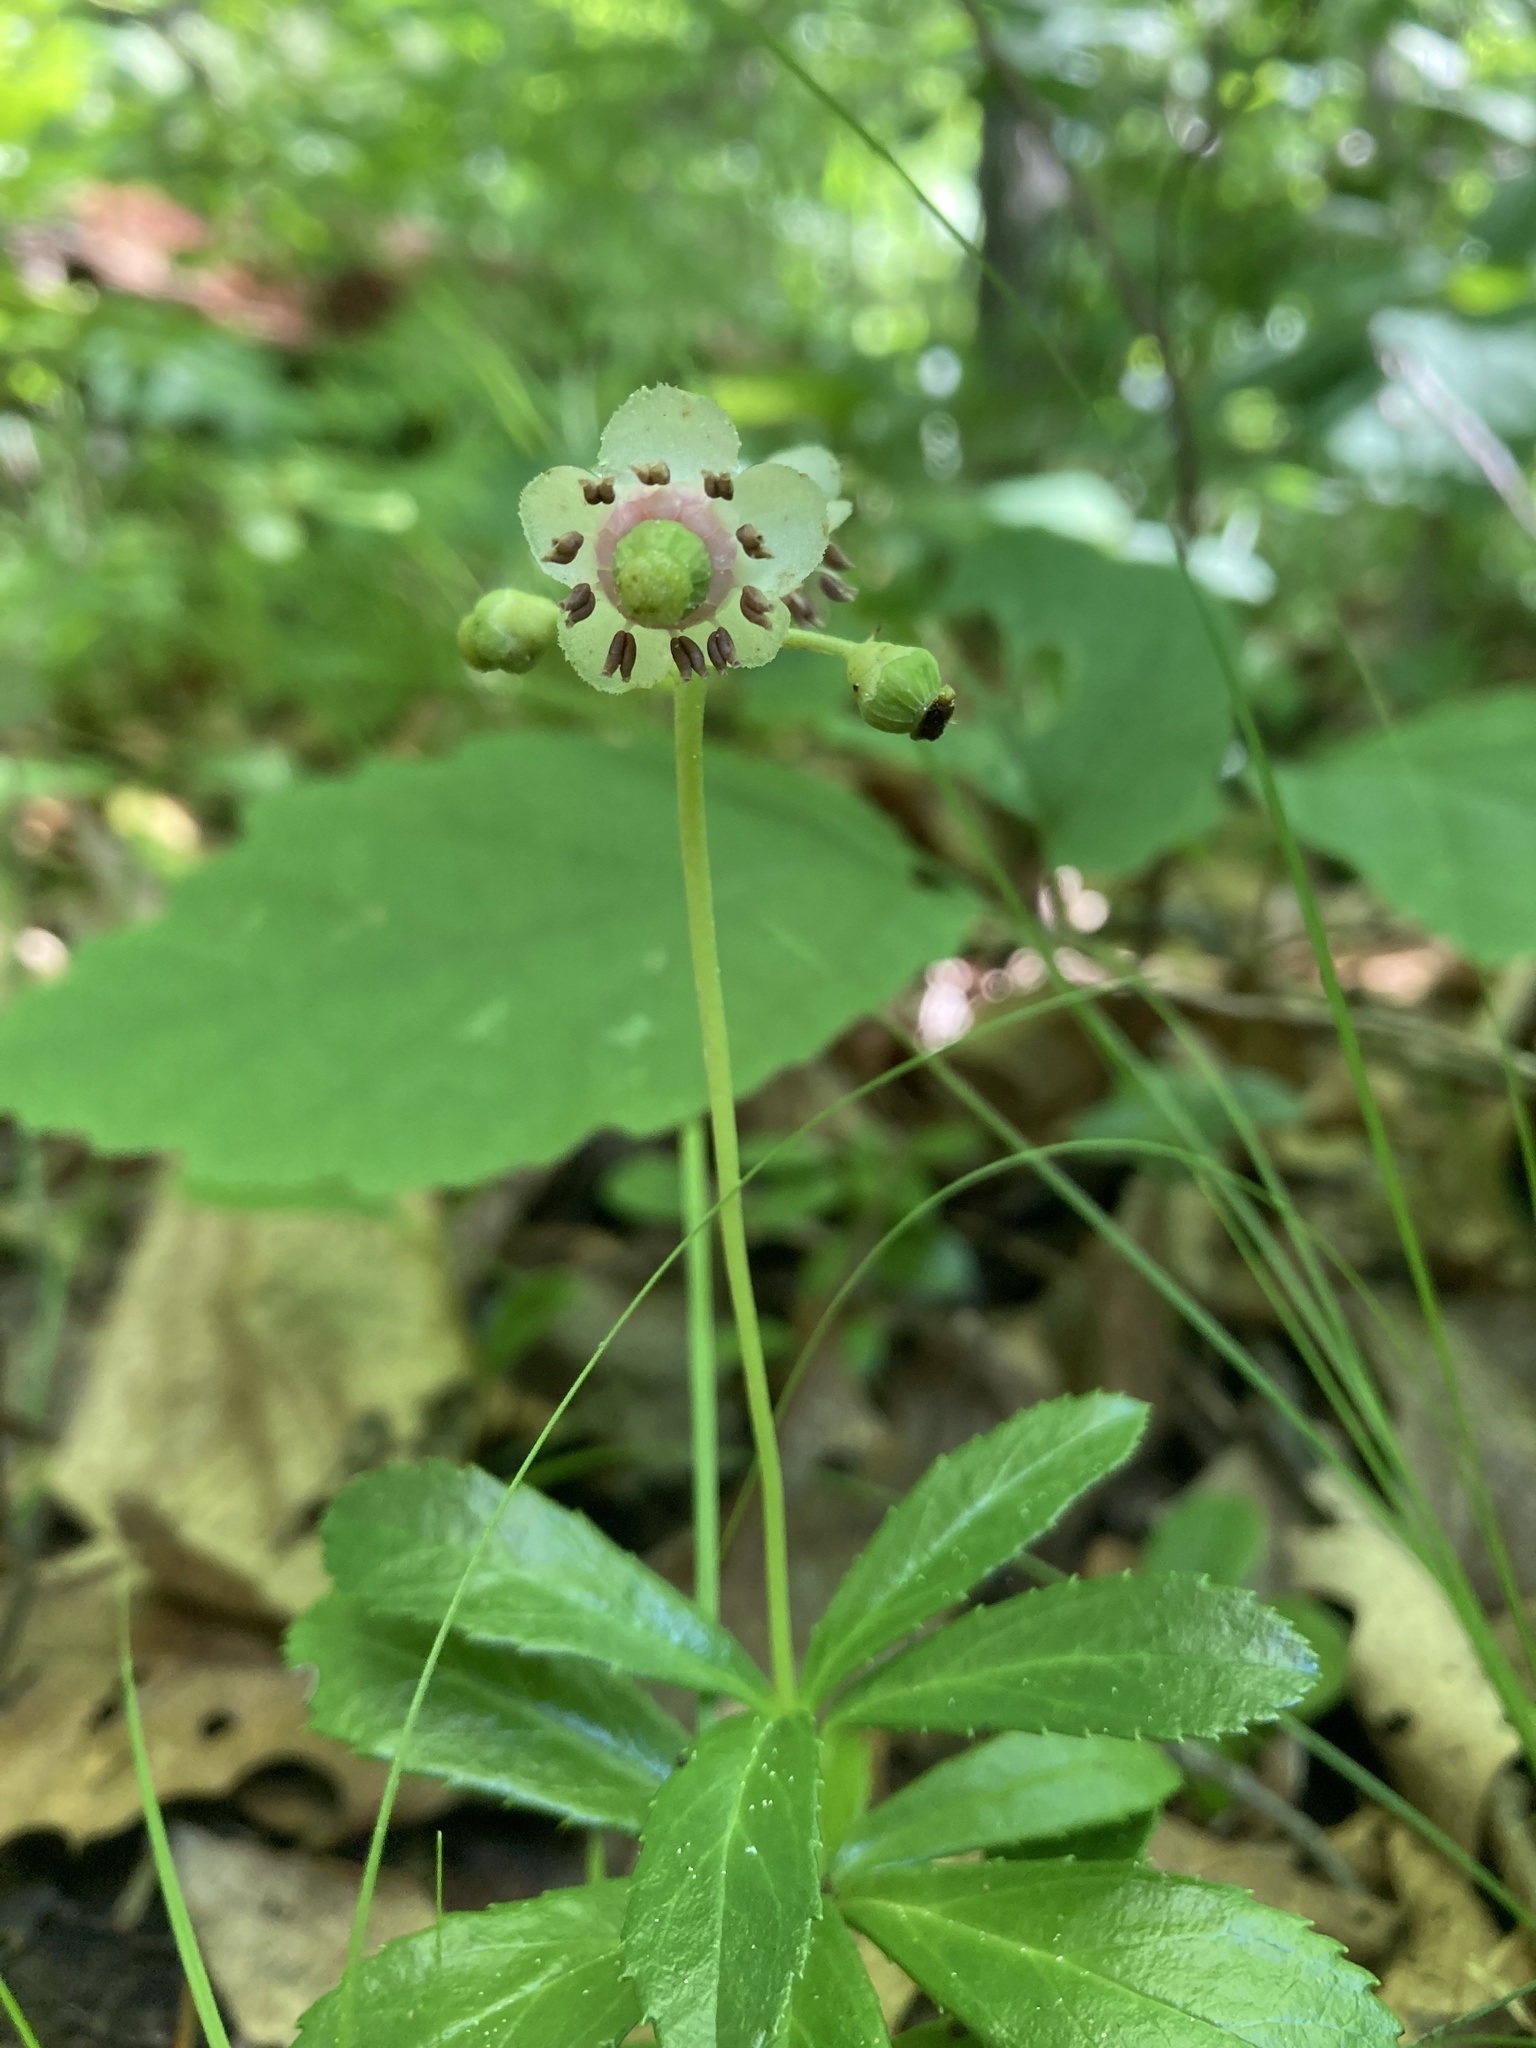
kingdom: Plantae
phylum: Tracheophyta
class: Magnoliopsida
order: Ericales
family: Ericaceae
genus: Chimaphila
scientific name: Chimaphila umbellata
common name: Pipsissewa
